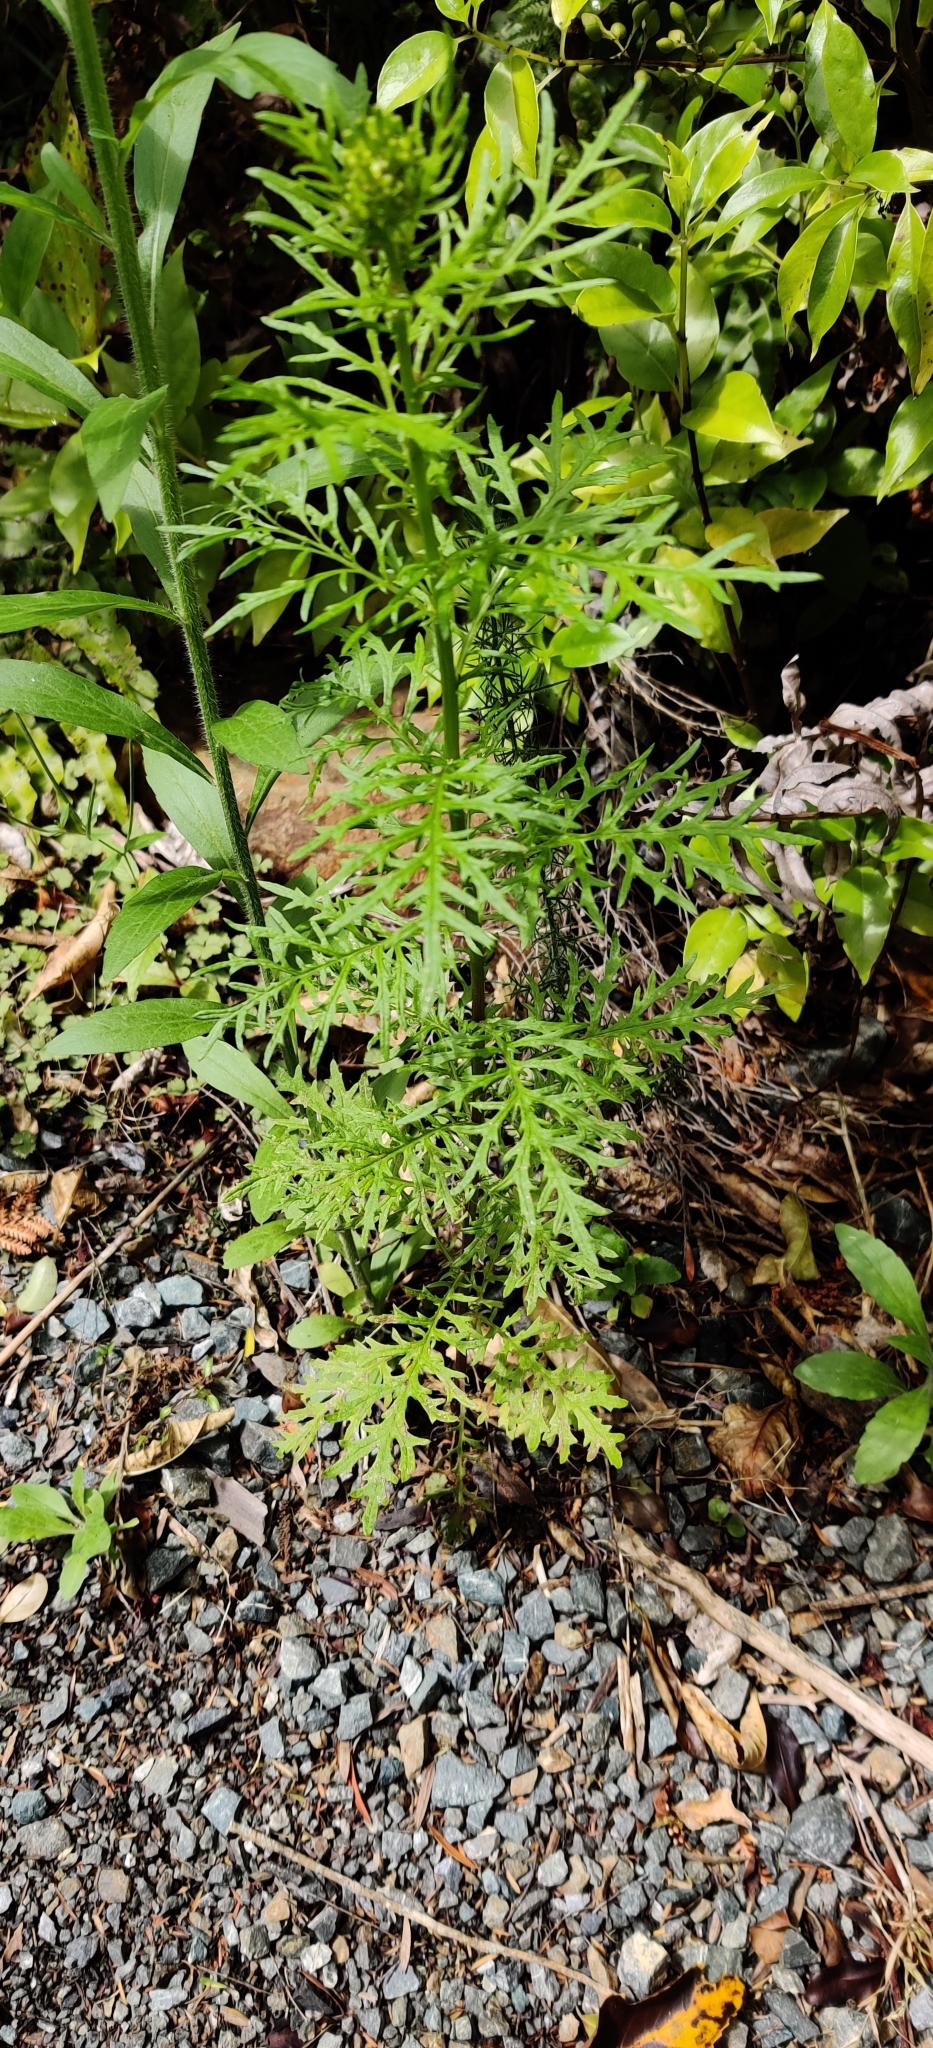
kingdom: Plantae
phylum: Tracheophyta
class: Magnoliopsida
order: Asterales
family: Asteraceae
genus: Senecio
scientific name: Senecio bipinnatisectus
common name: Australian fireweed
